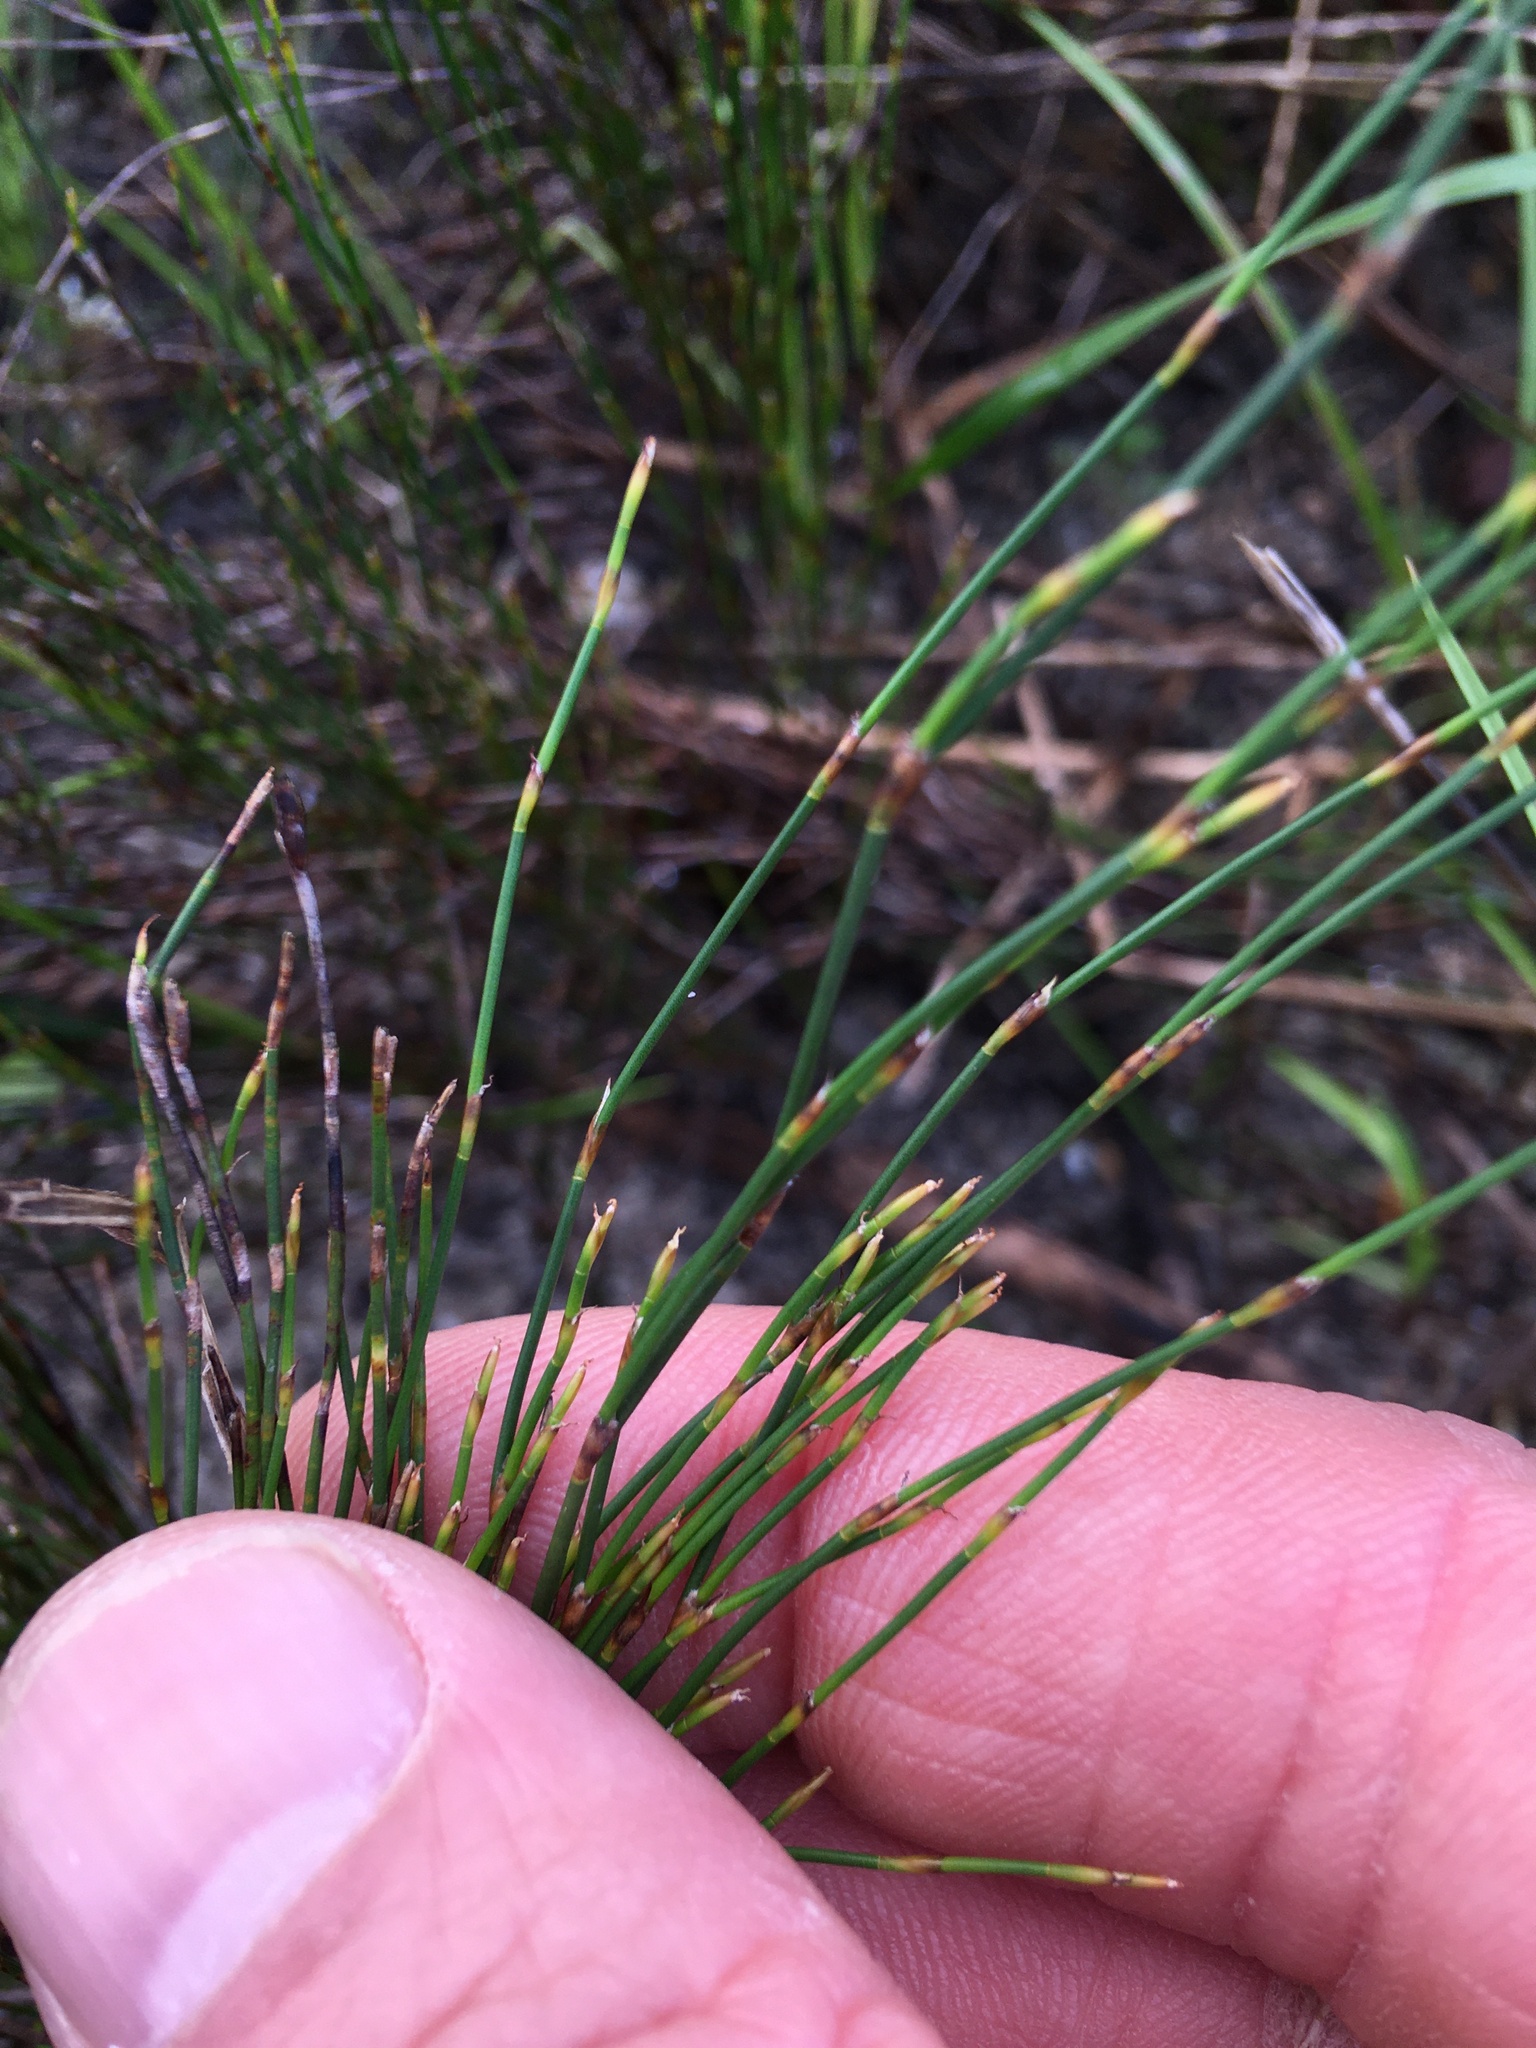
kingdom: Plantae
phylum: Tracheophyta
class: Liliopsida
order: Poales
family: Restionaceae
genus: Restio
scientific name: Restio eleocharis
